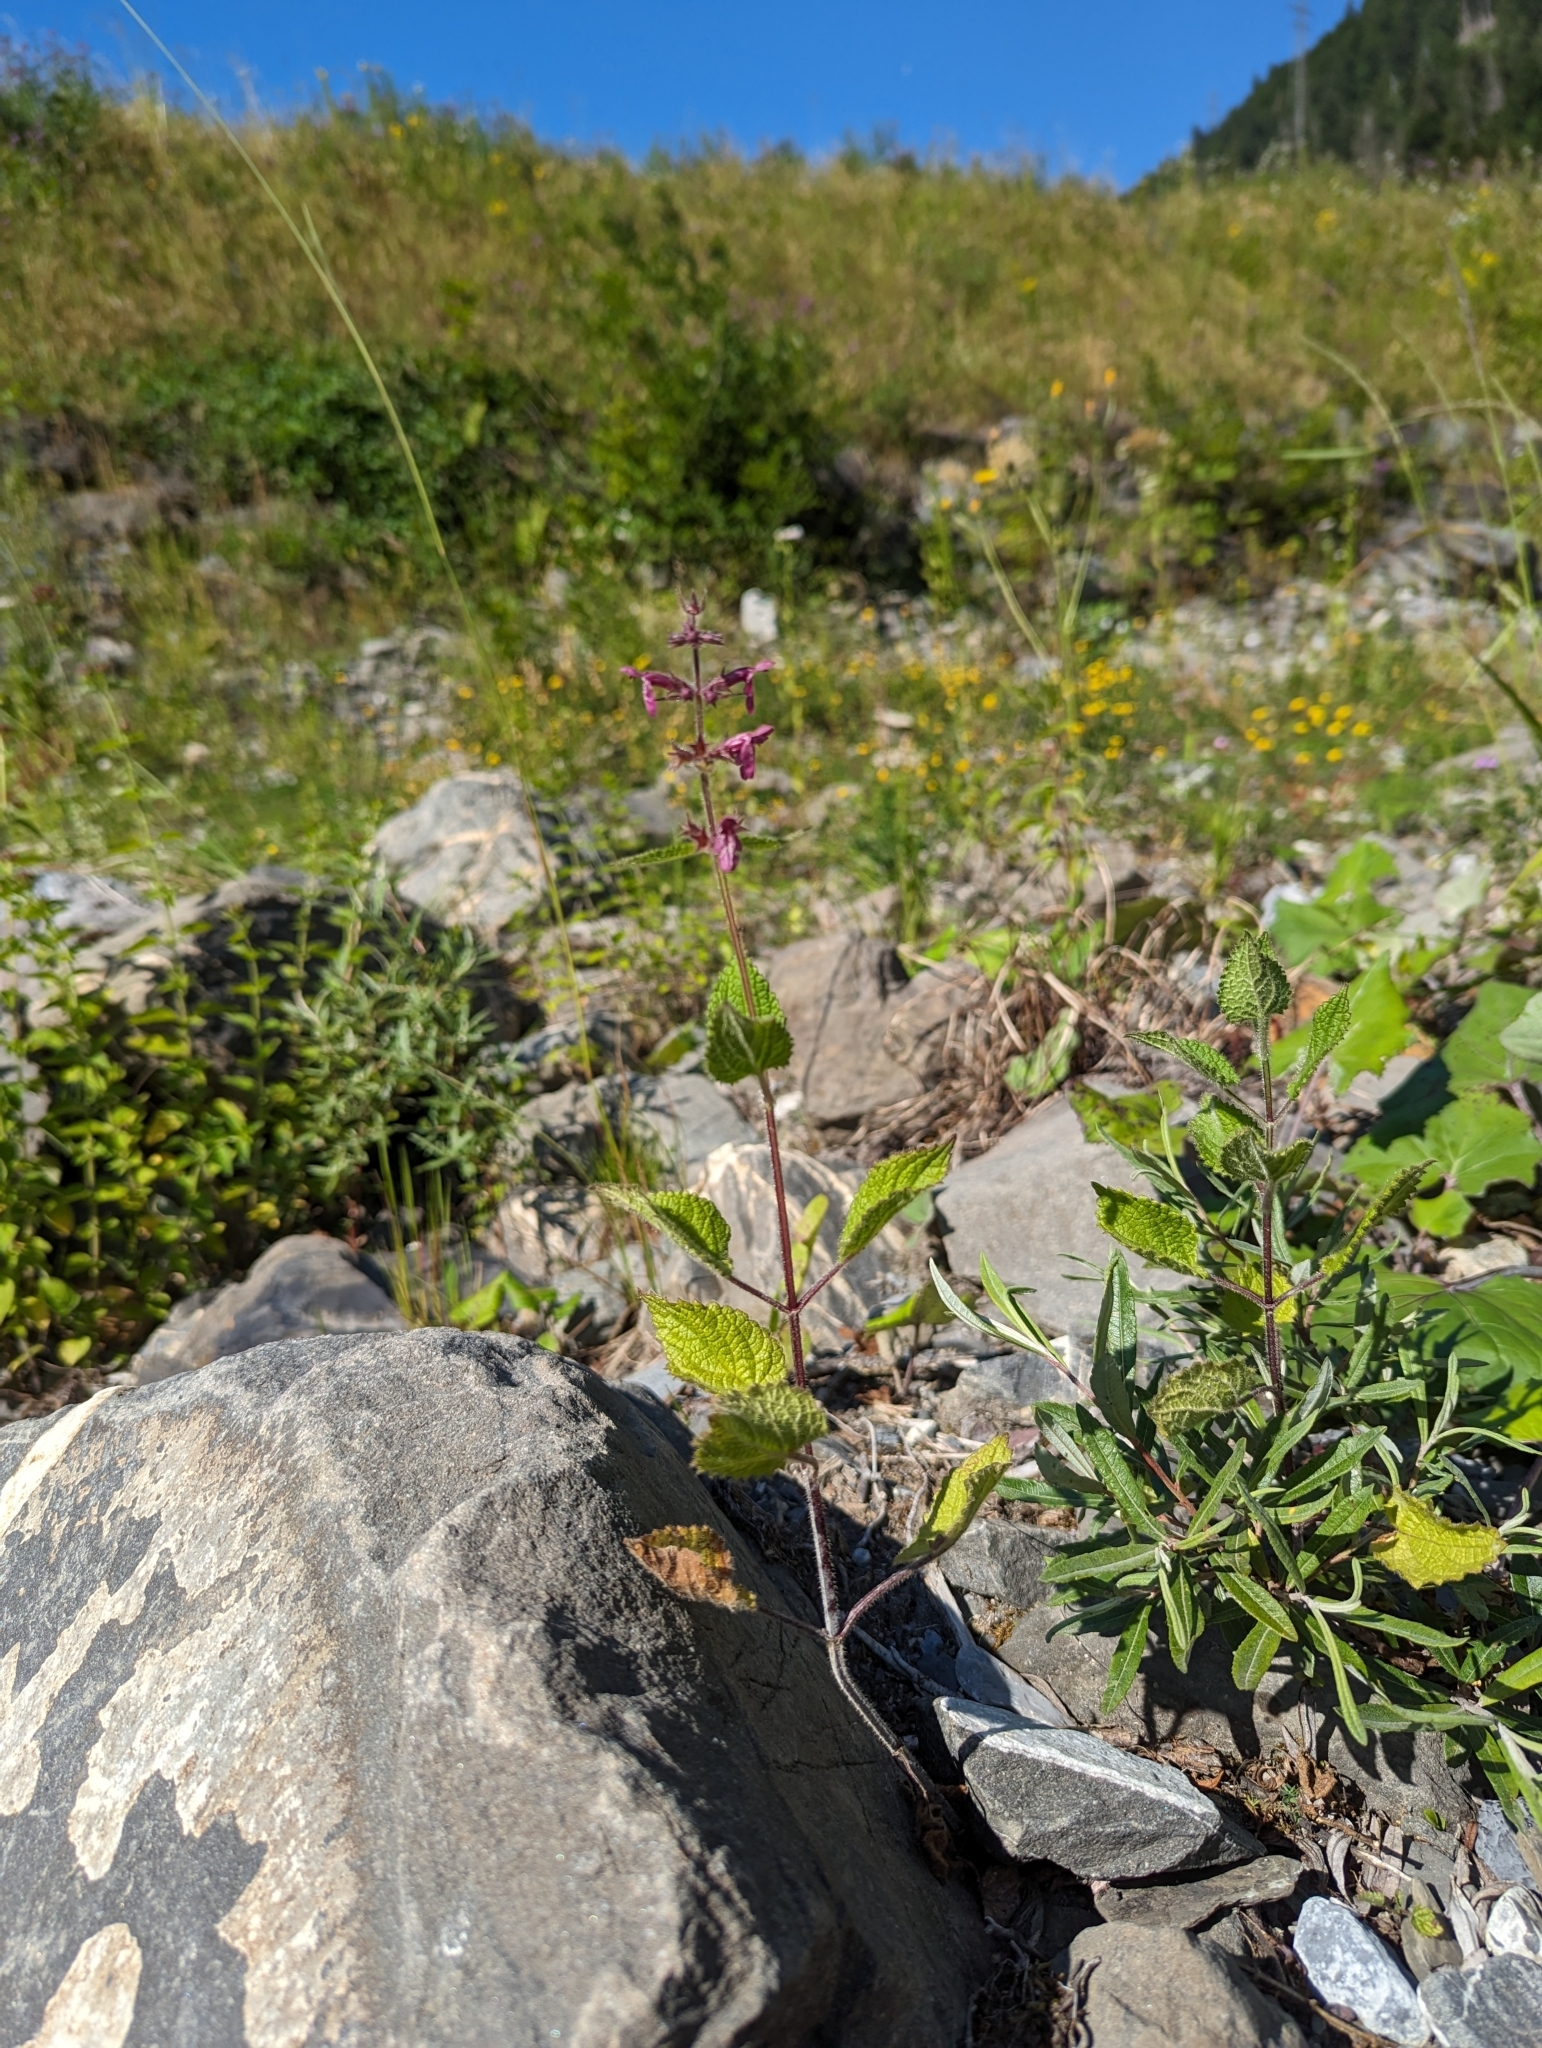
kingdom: Plantae
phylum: Tracheophyta
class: Magnoliopsida
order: Lamiales
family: Lamiaceae
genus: Stachys
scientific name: Stachys sylvatica
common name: Hedge woundwort
